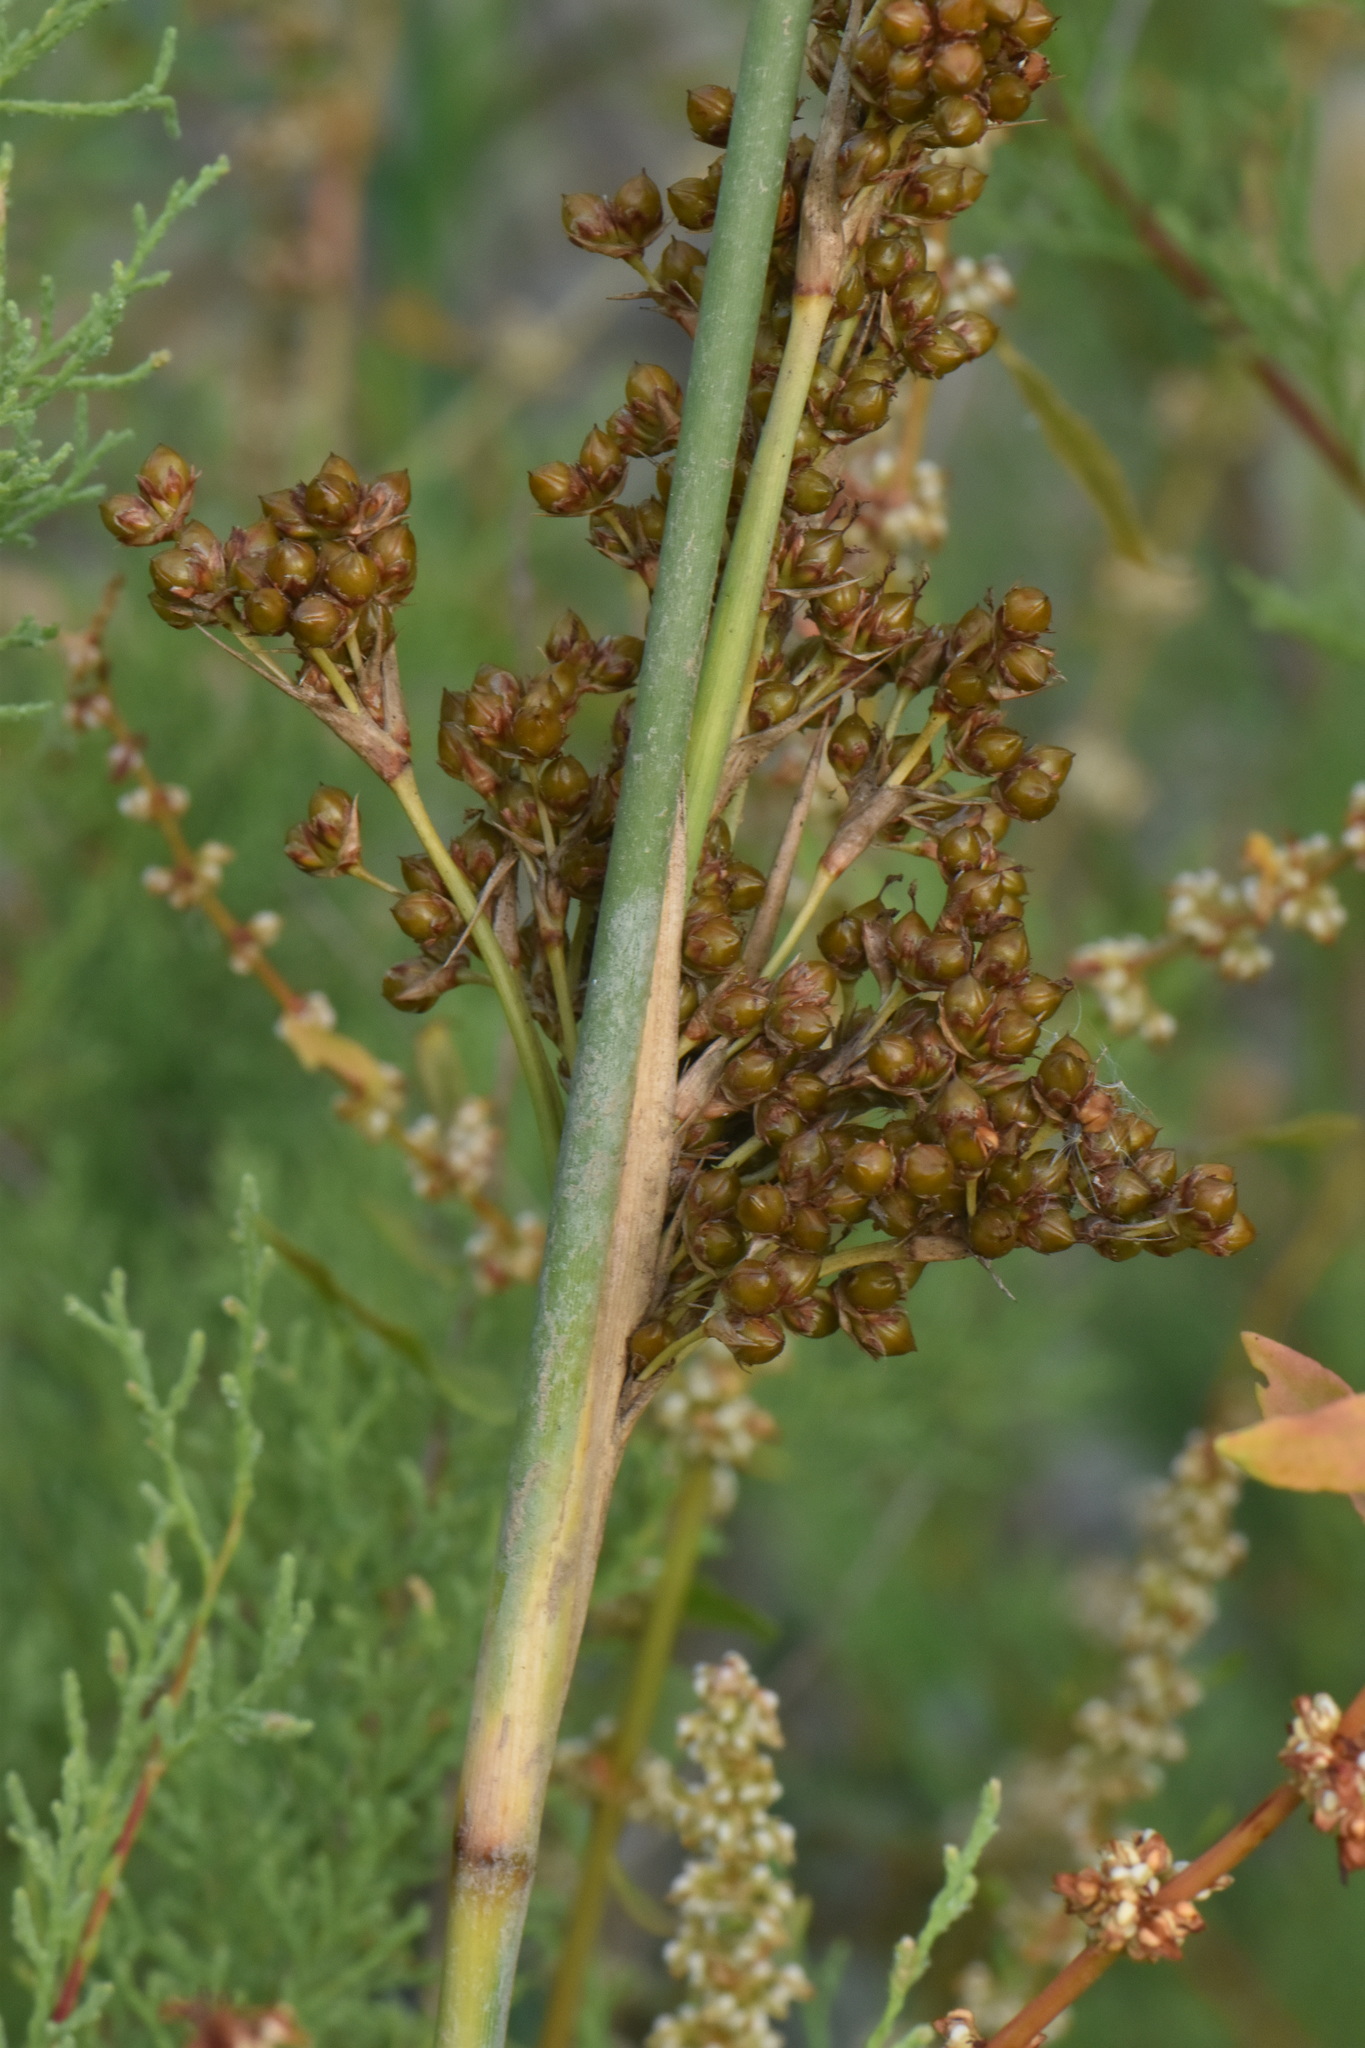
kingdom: Plantae
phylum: Tracheophyta
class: Liliopsida
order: Poales
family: Juncaceae
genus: Juncus
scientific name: Juncus acutus
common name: Sharp rush
